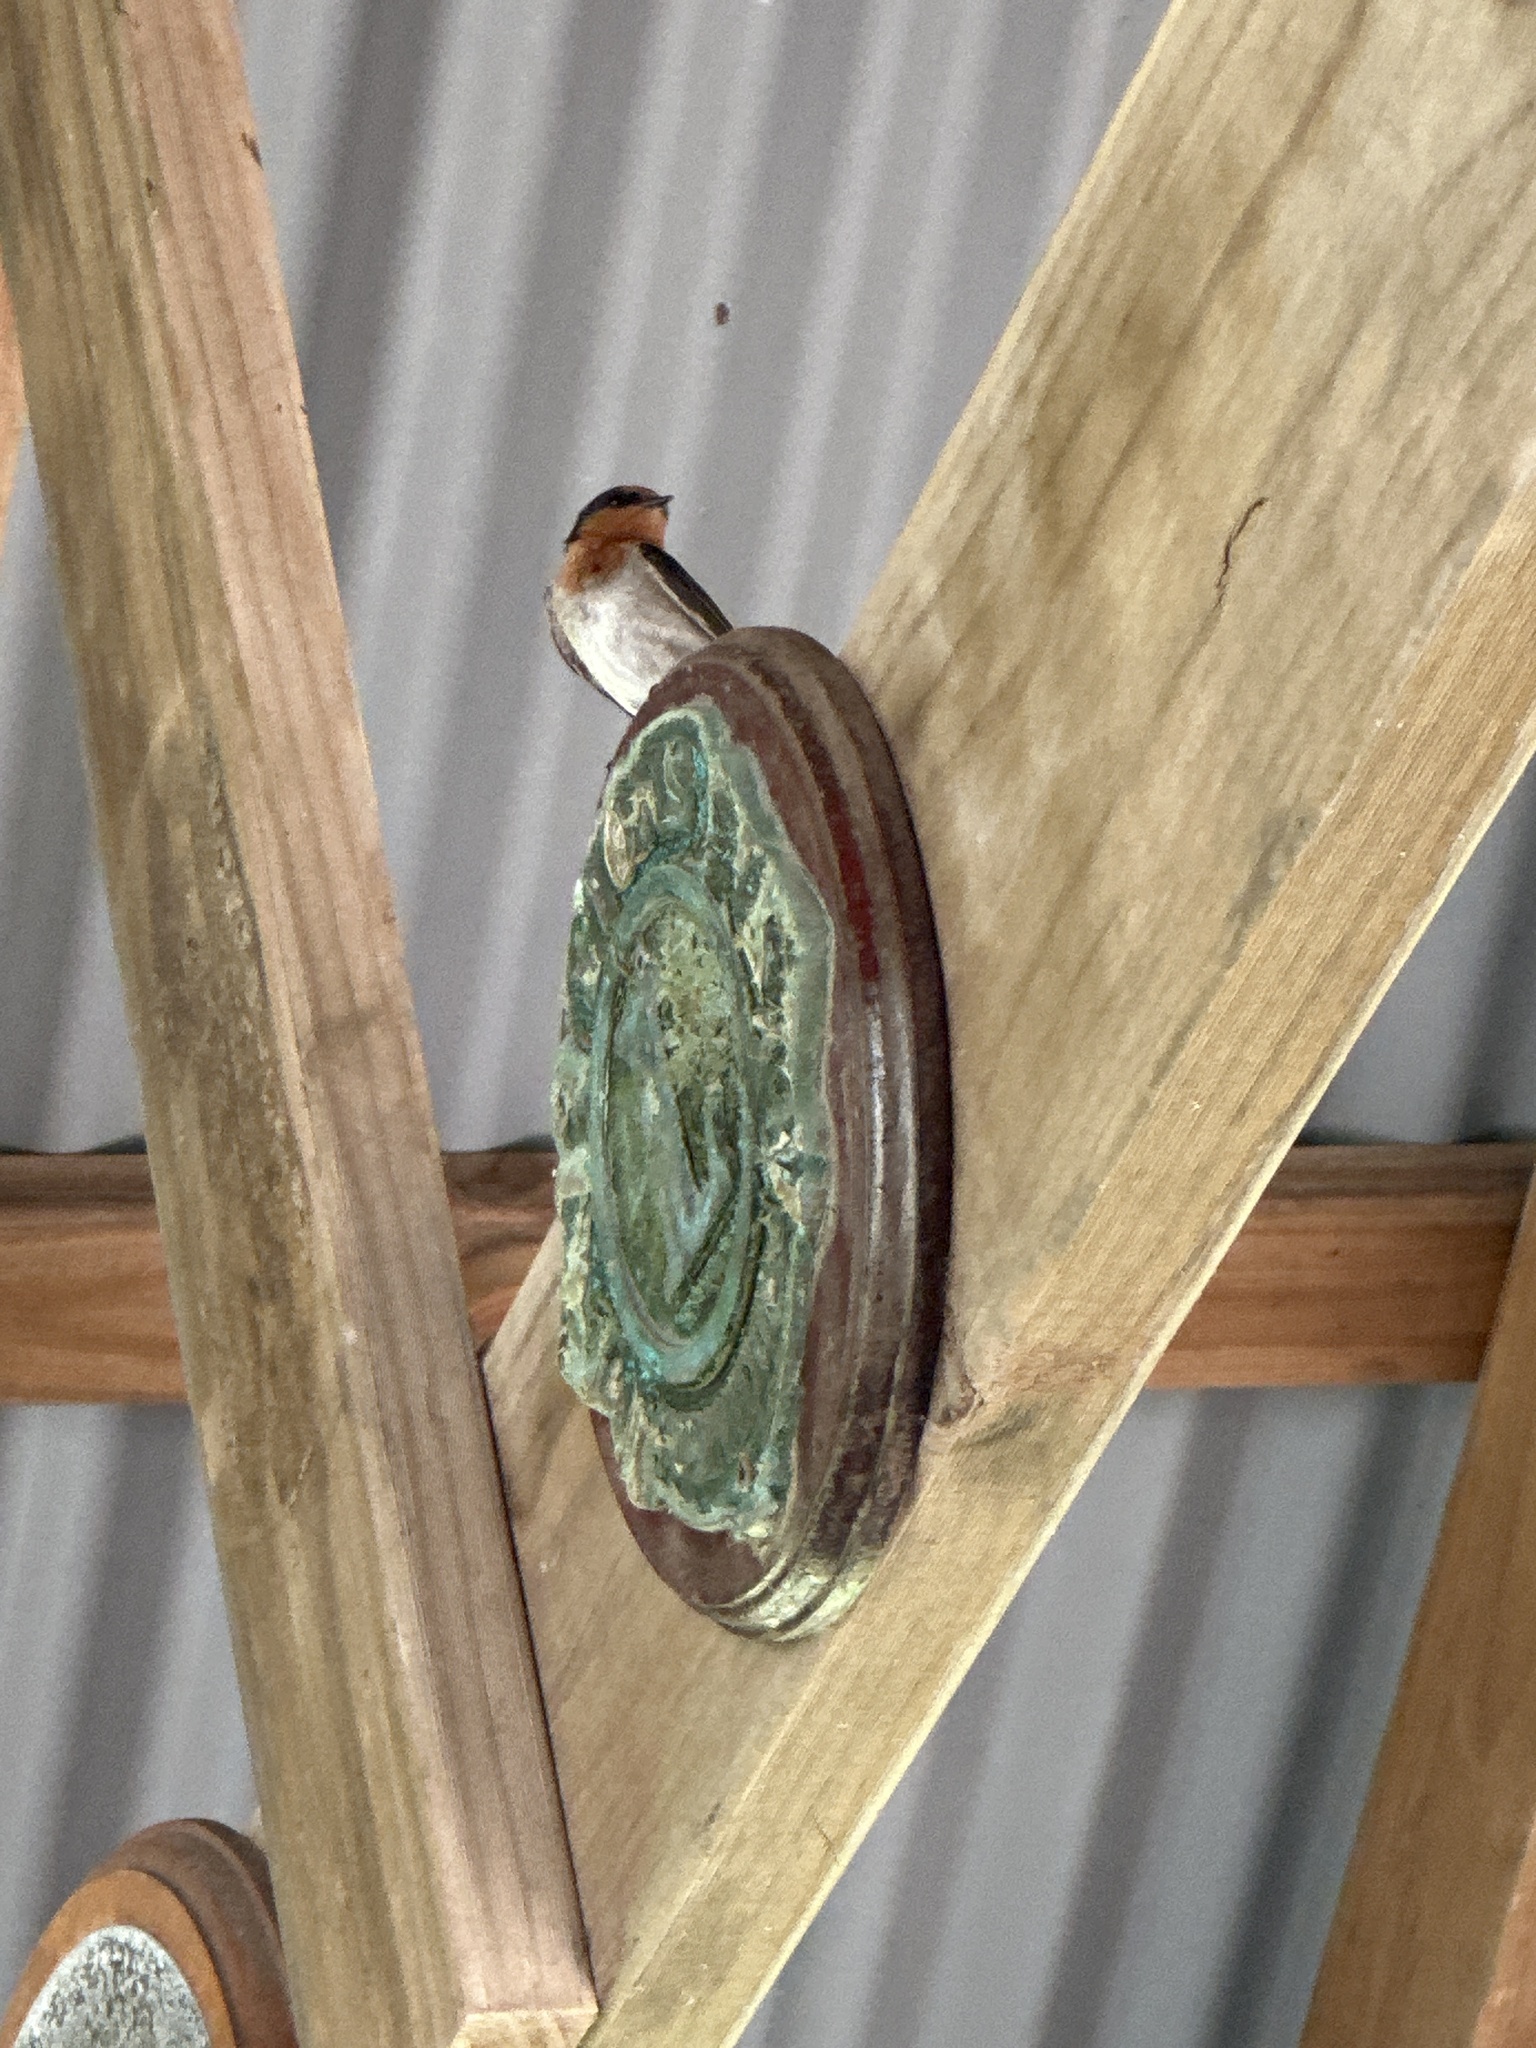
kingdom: Animalia
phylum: Chordata
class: Aves
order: Passeriformes
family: Hirundinidae
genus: Hirundo
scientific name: Hirundo neoxena
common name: Welcome swallow
